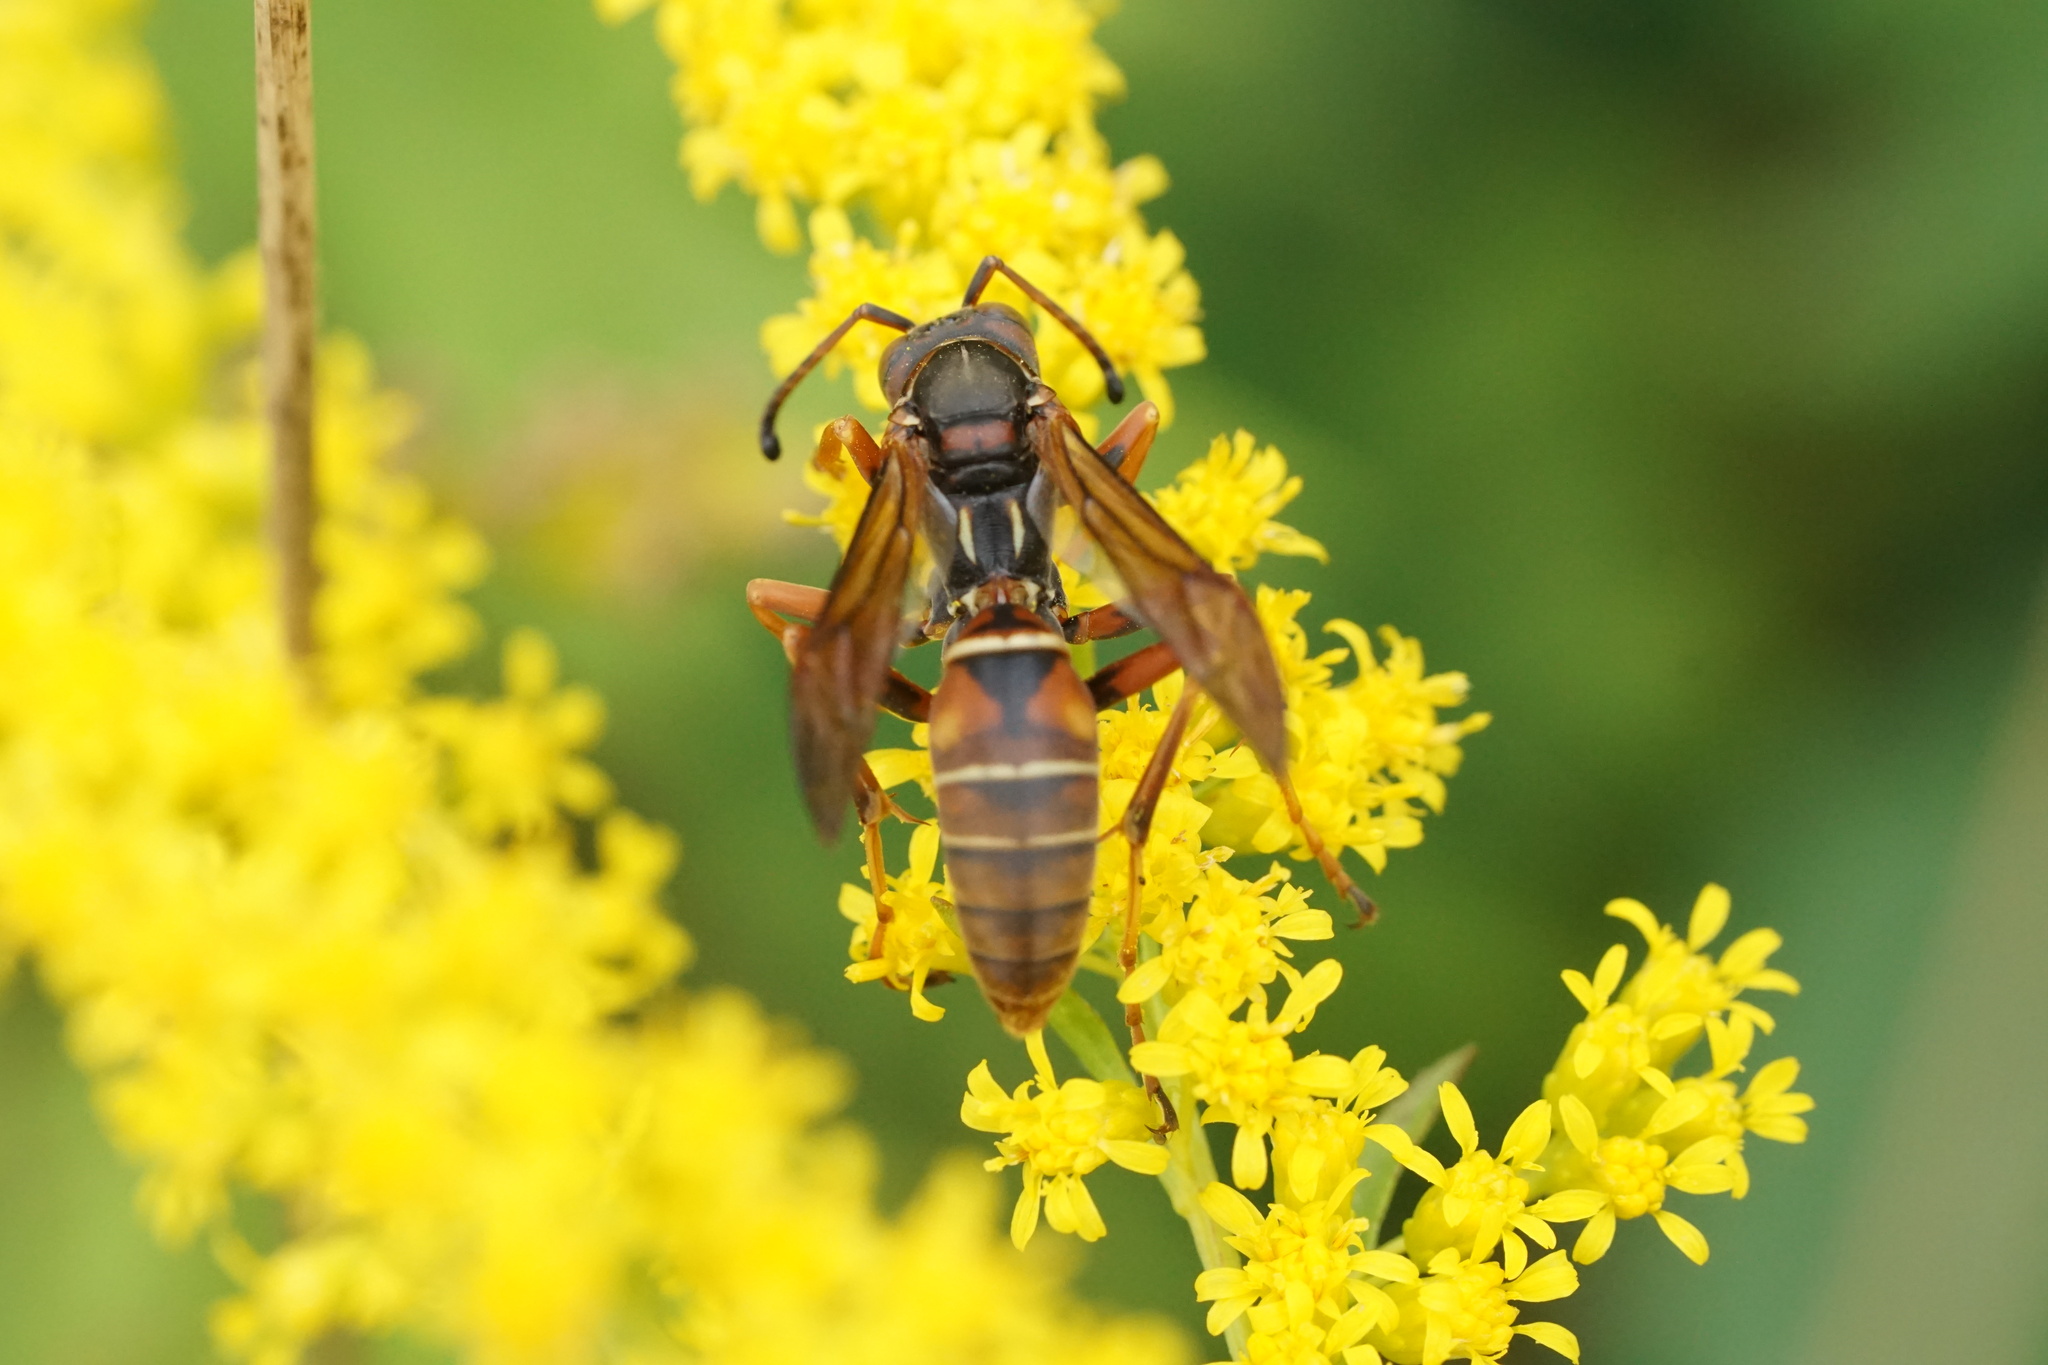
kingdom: Animalia
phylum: Arthropoda
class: Insecta
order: Hymenoptera
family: Eumenidae
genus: Polistes
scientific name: Polistes fuscatus
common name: Dark paper wasp
